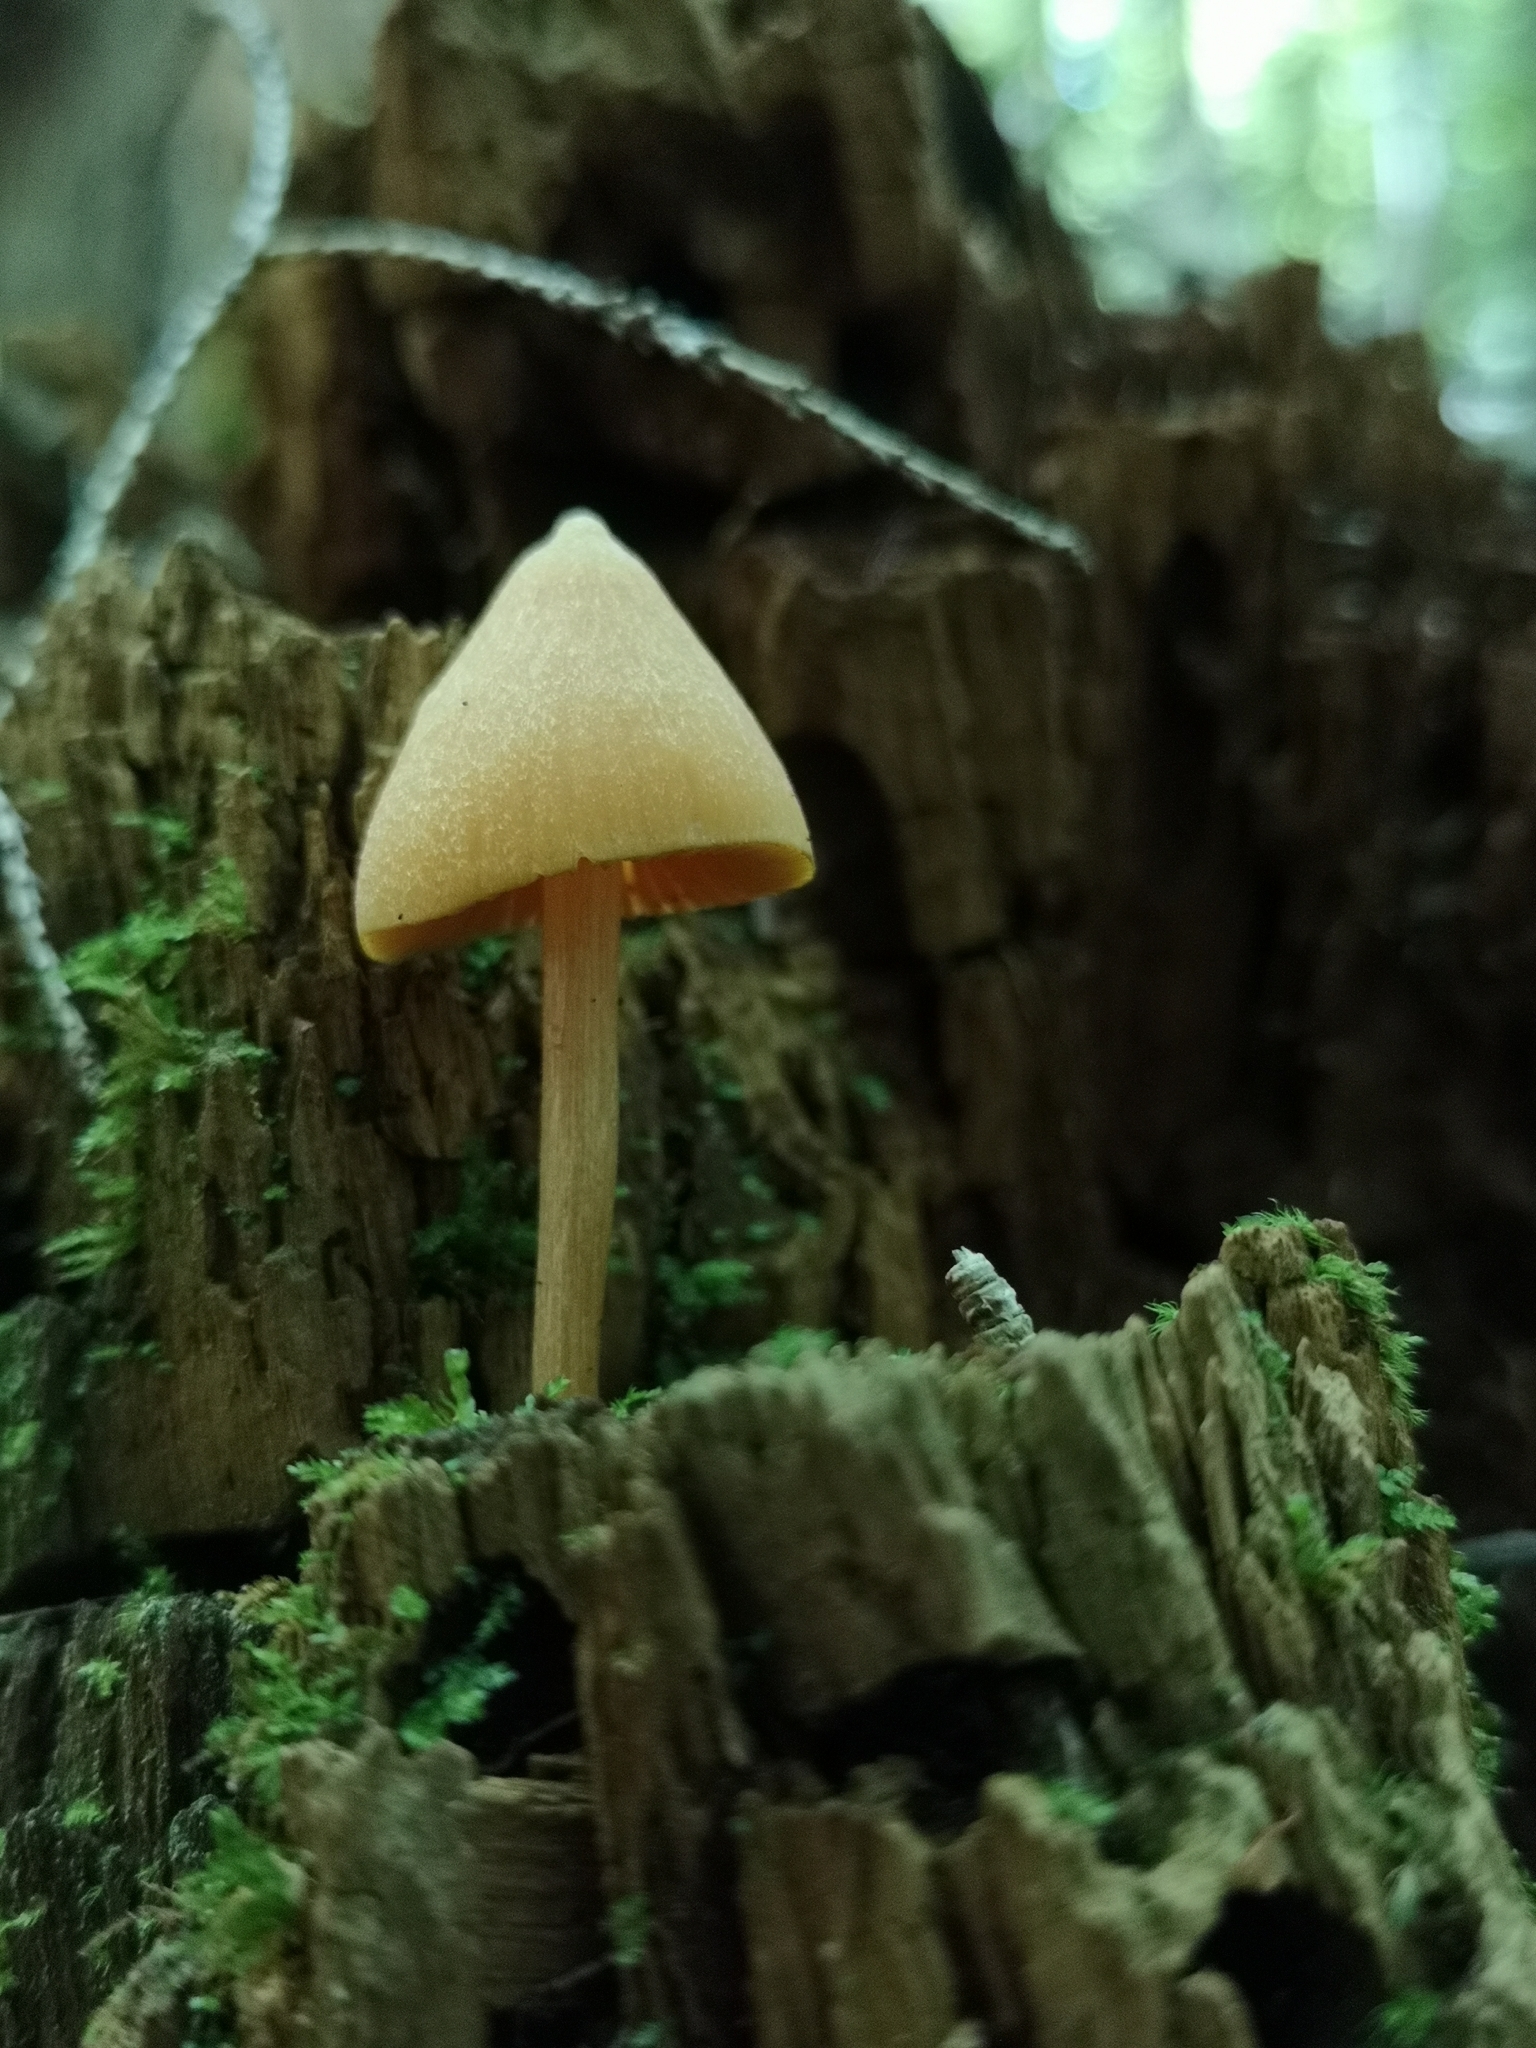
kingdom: Fungi
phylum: Basidiomycota
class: Agaricomycetes
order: Agaricales
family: Entolomataceae
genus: Entoloma
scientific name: Entoloma quadratum
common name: Salmon pinkgill
